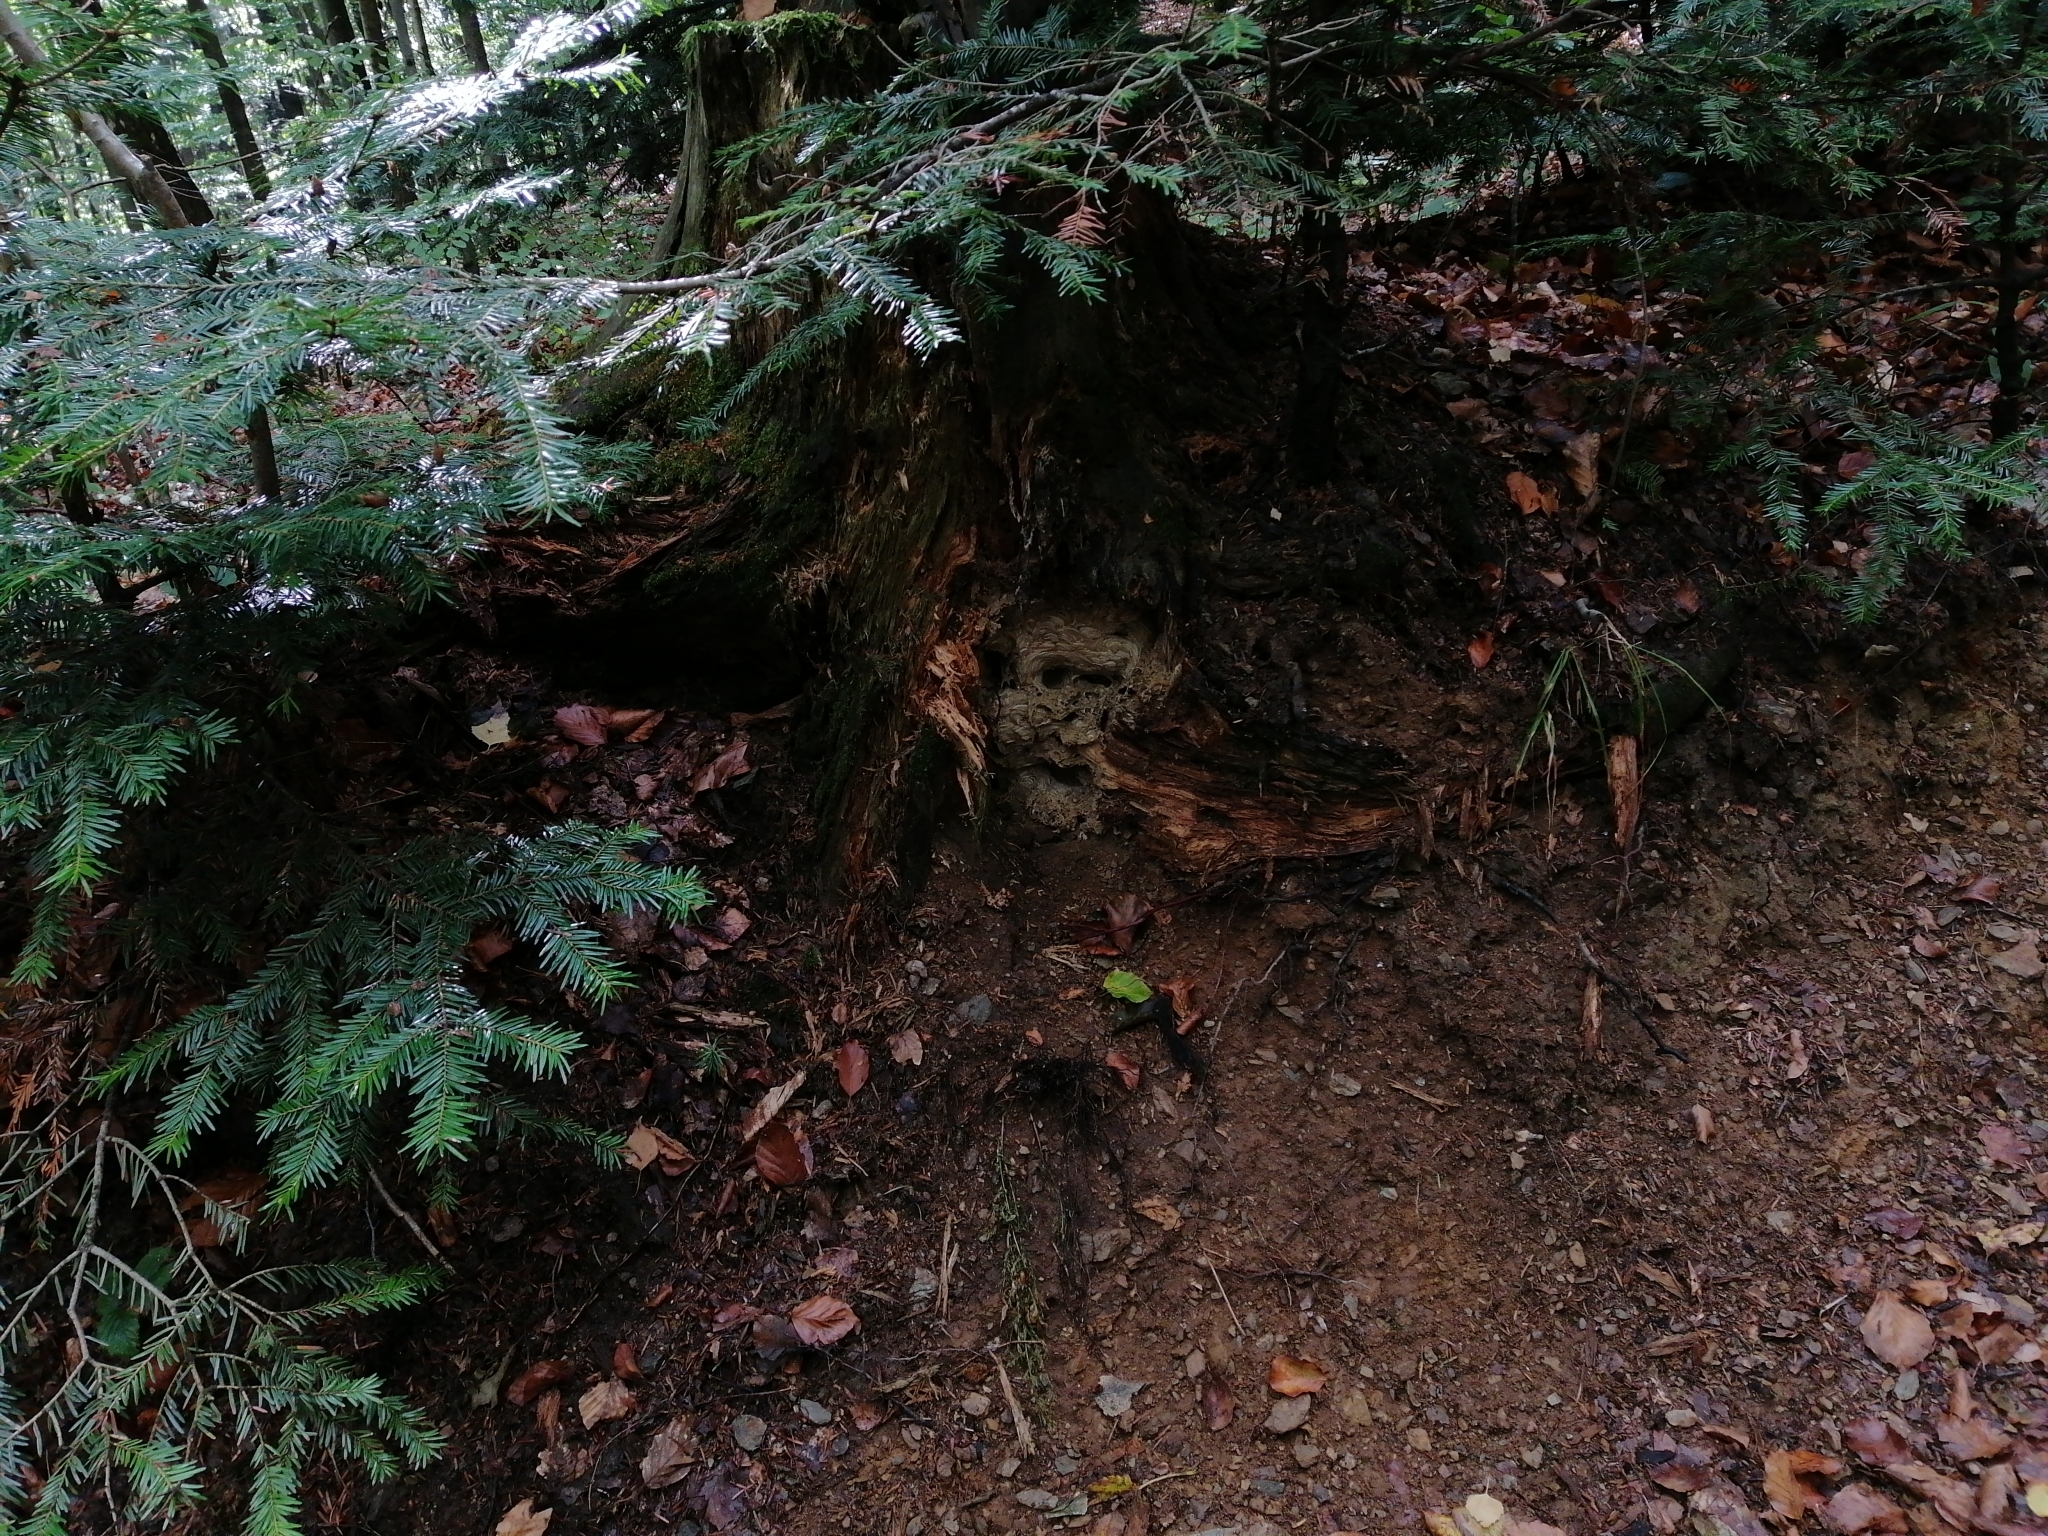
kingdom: Animalia
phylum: Arthropoda
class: Insecta
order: Hymenoptera
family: Vespidae
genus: Vespula
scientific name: Vespula vulgaris
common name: Common wasp
